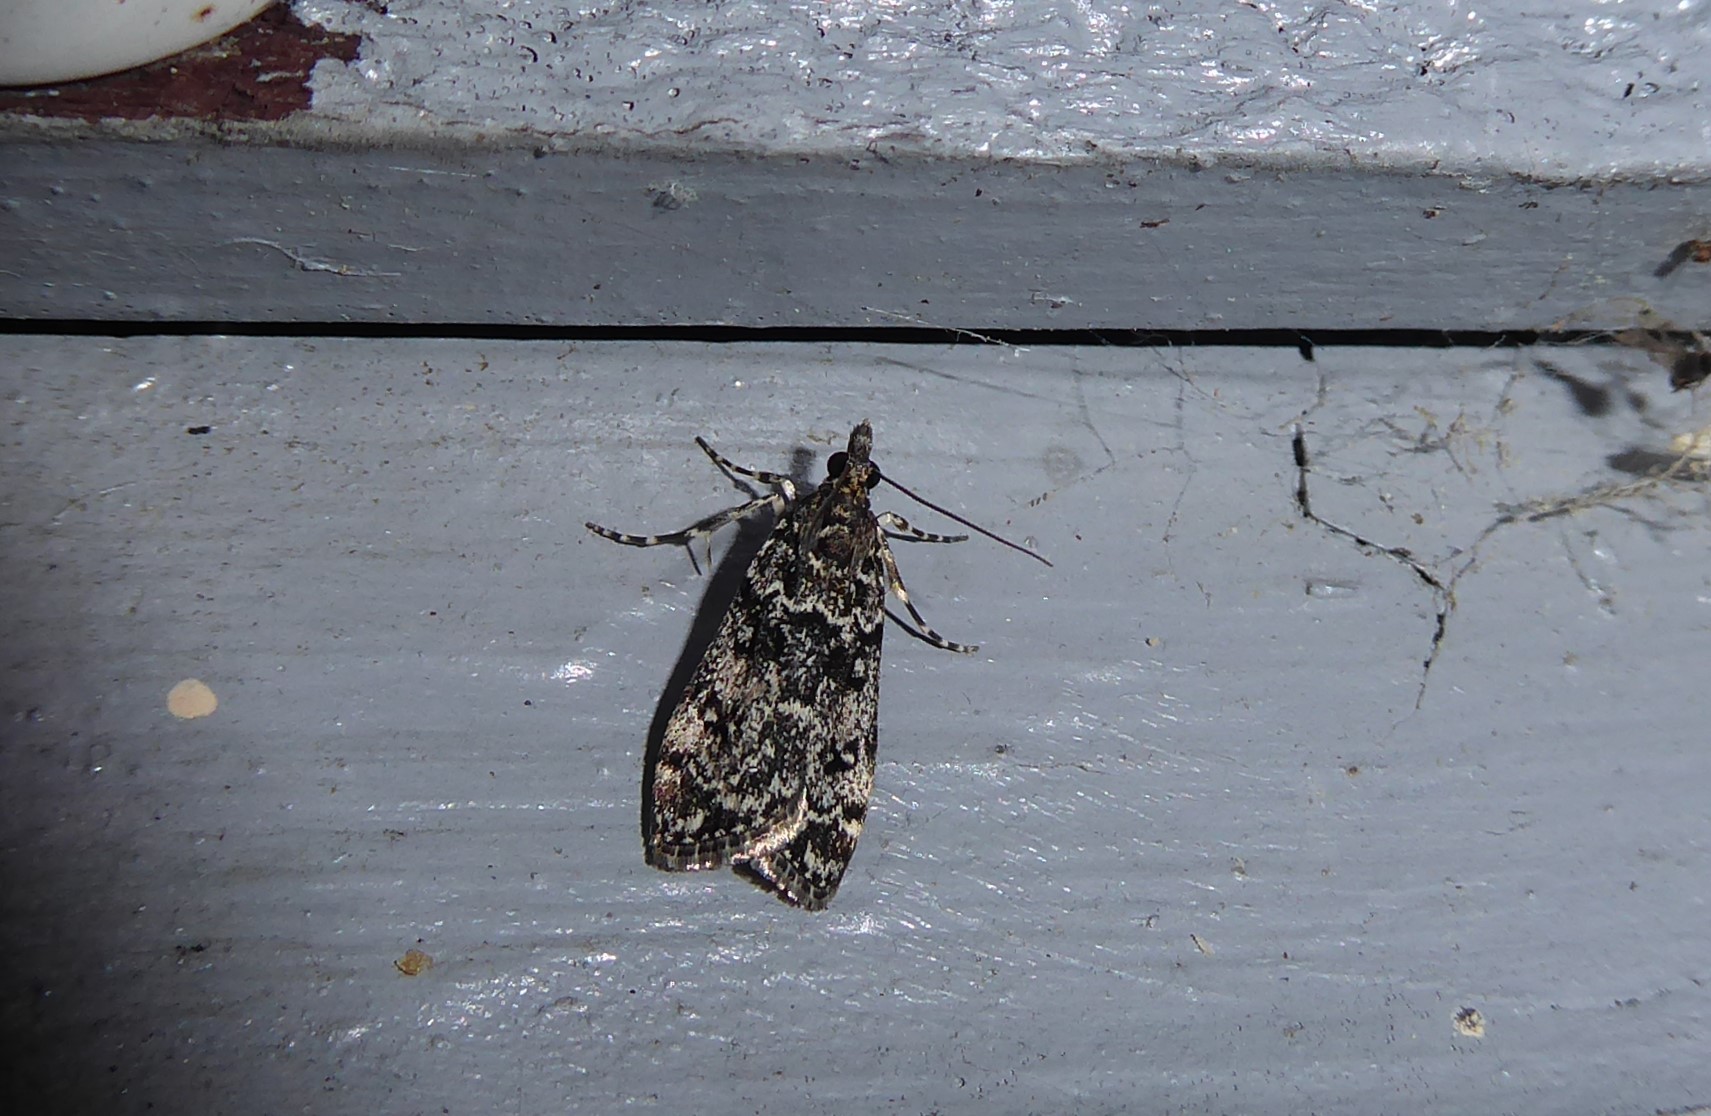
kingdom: Animalia
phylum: Arthropoda
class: Insecta
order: Lepidoptera
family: Crambidae
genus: Eudonia
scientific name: Eudonia philerga
